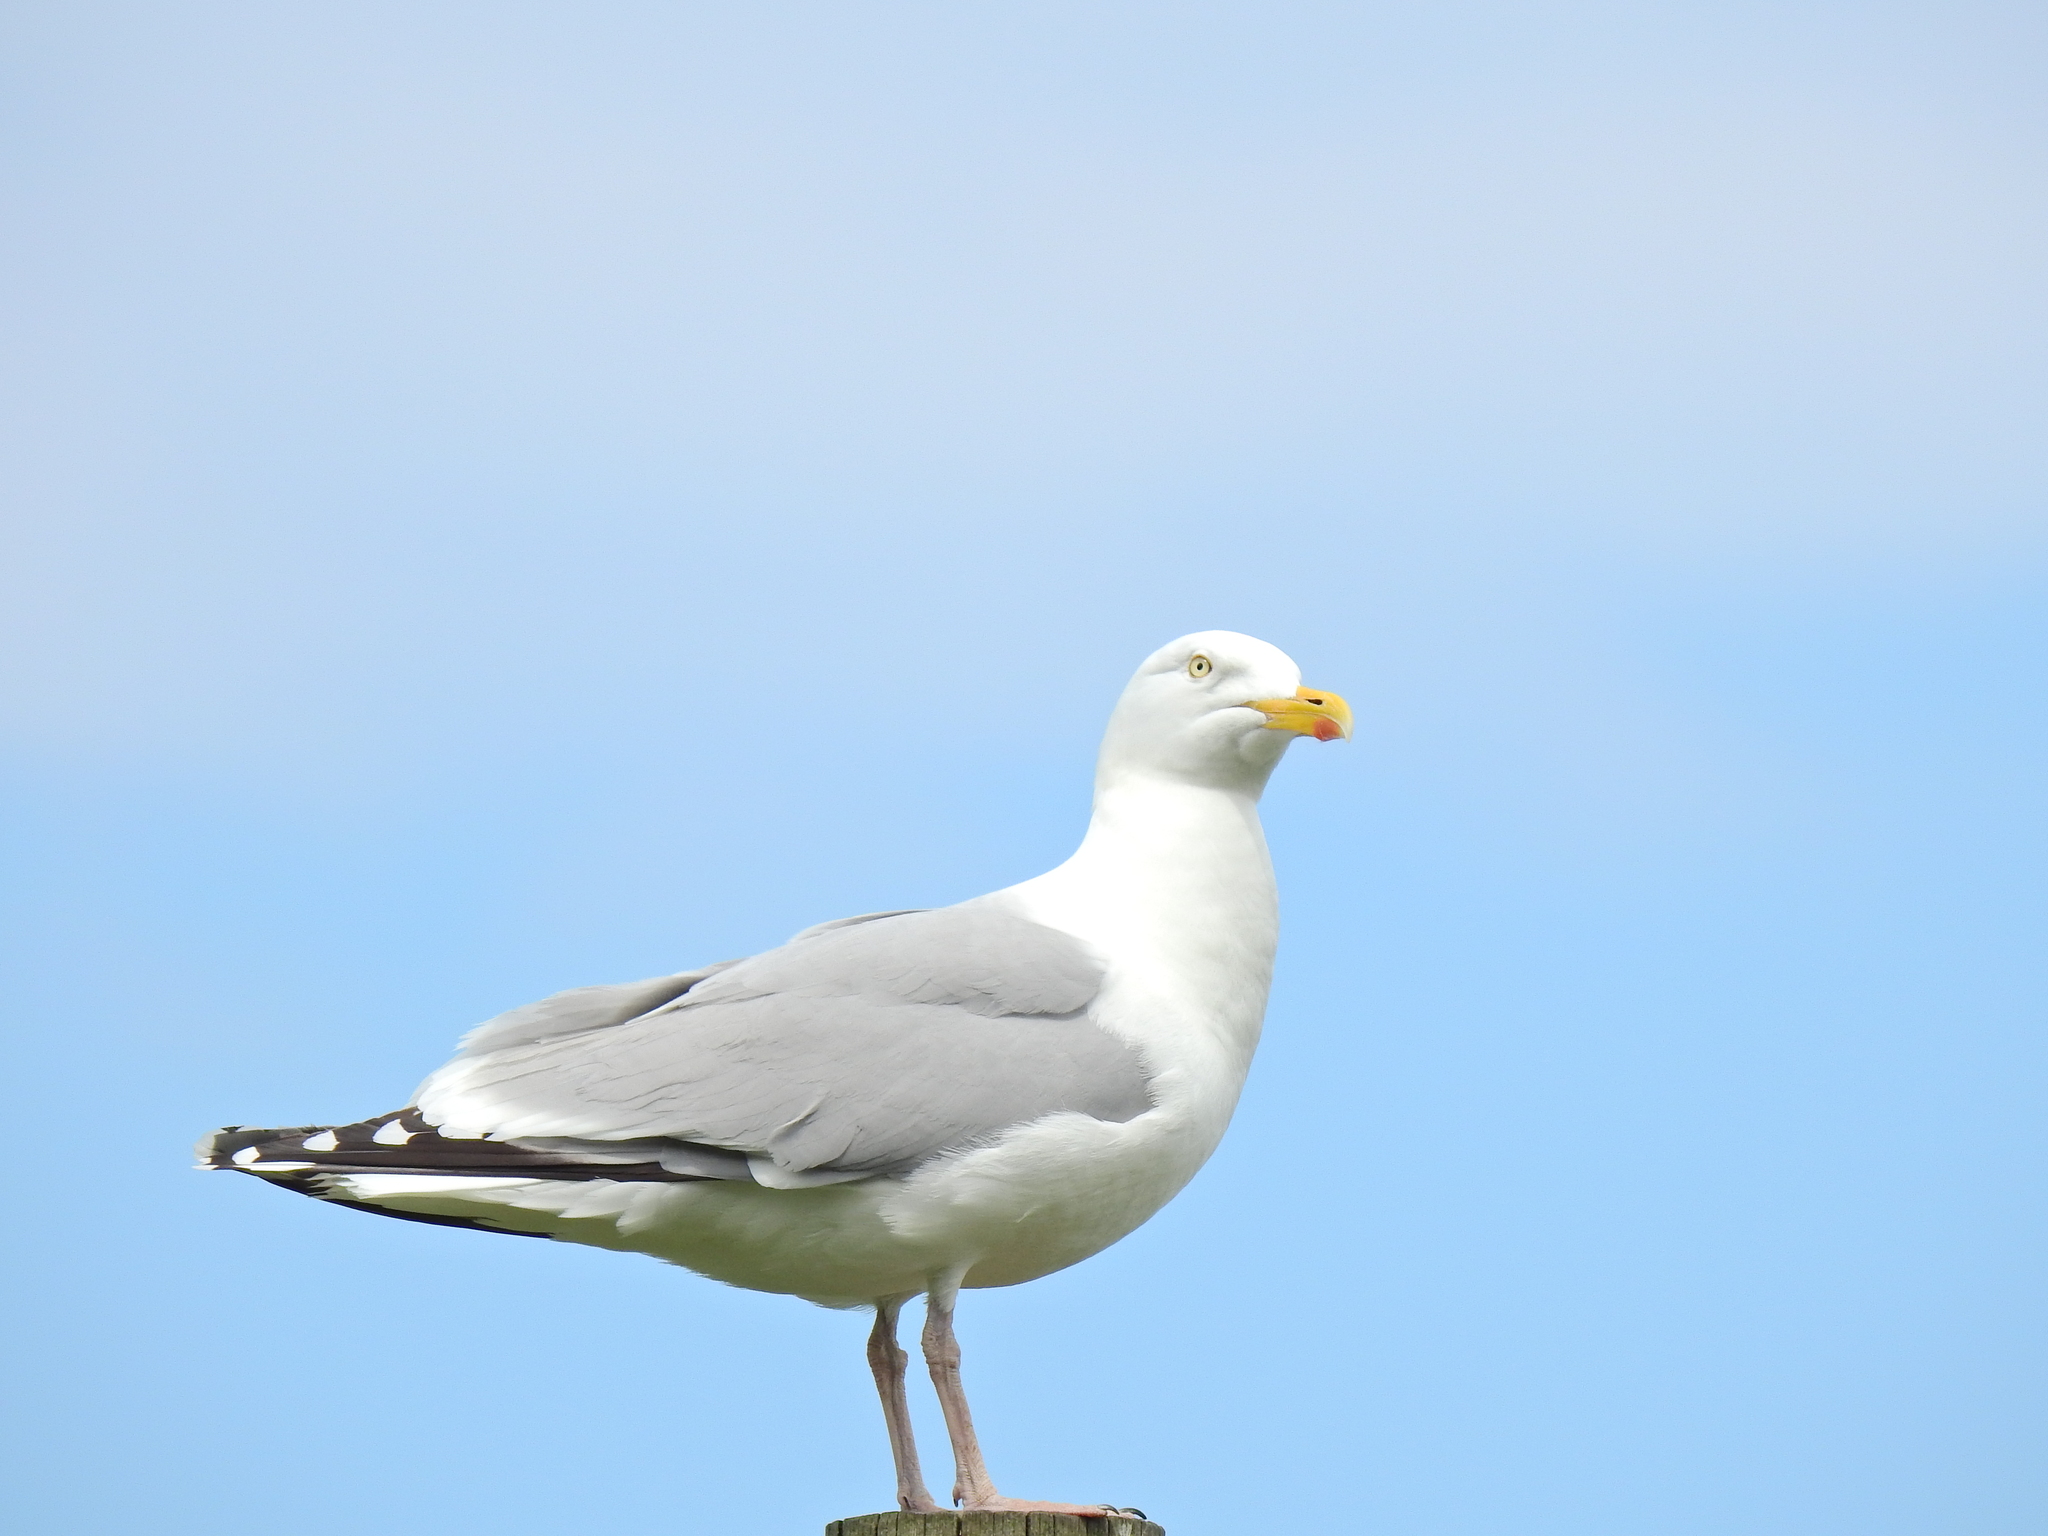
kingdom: Animalia
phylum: Chordata
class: Aves
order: Charadriiformes
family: Laridae
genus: Larus
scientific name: Larus argentatus
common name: Herring gull
